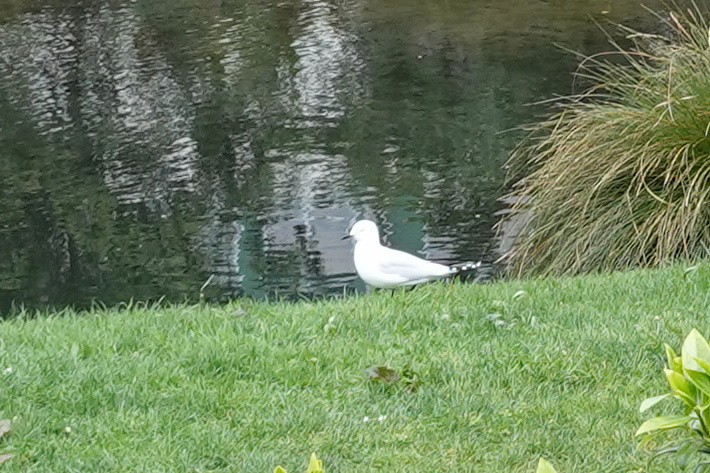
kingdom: Animalia
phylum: Chordata
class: Aves
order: Charadriiformes
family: Laridae
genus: Chroicocephalus
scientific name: Chroicocephalus bulleri
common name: Black-billed gull
